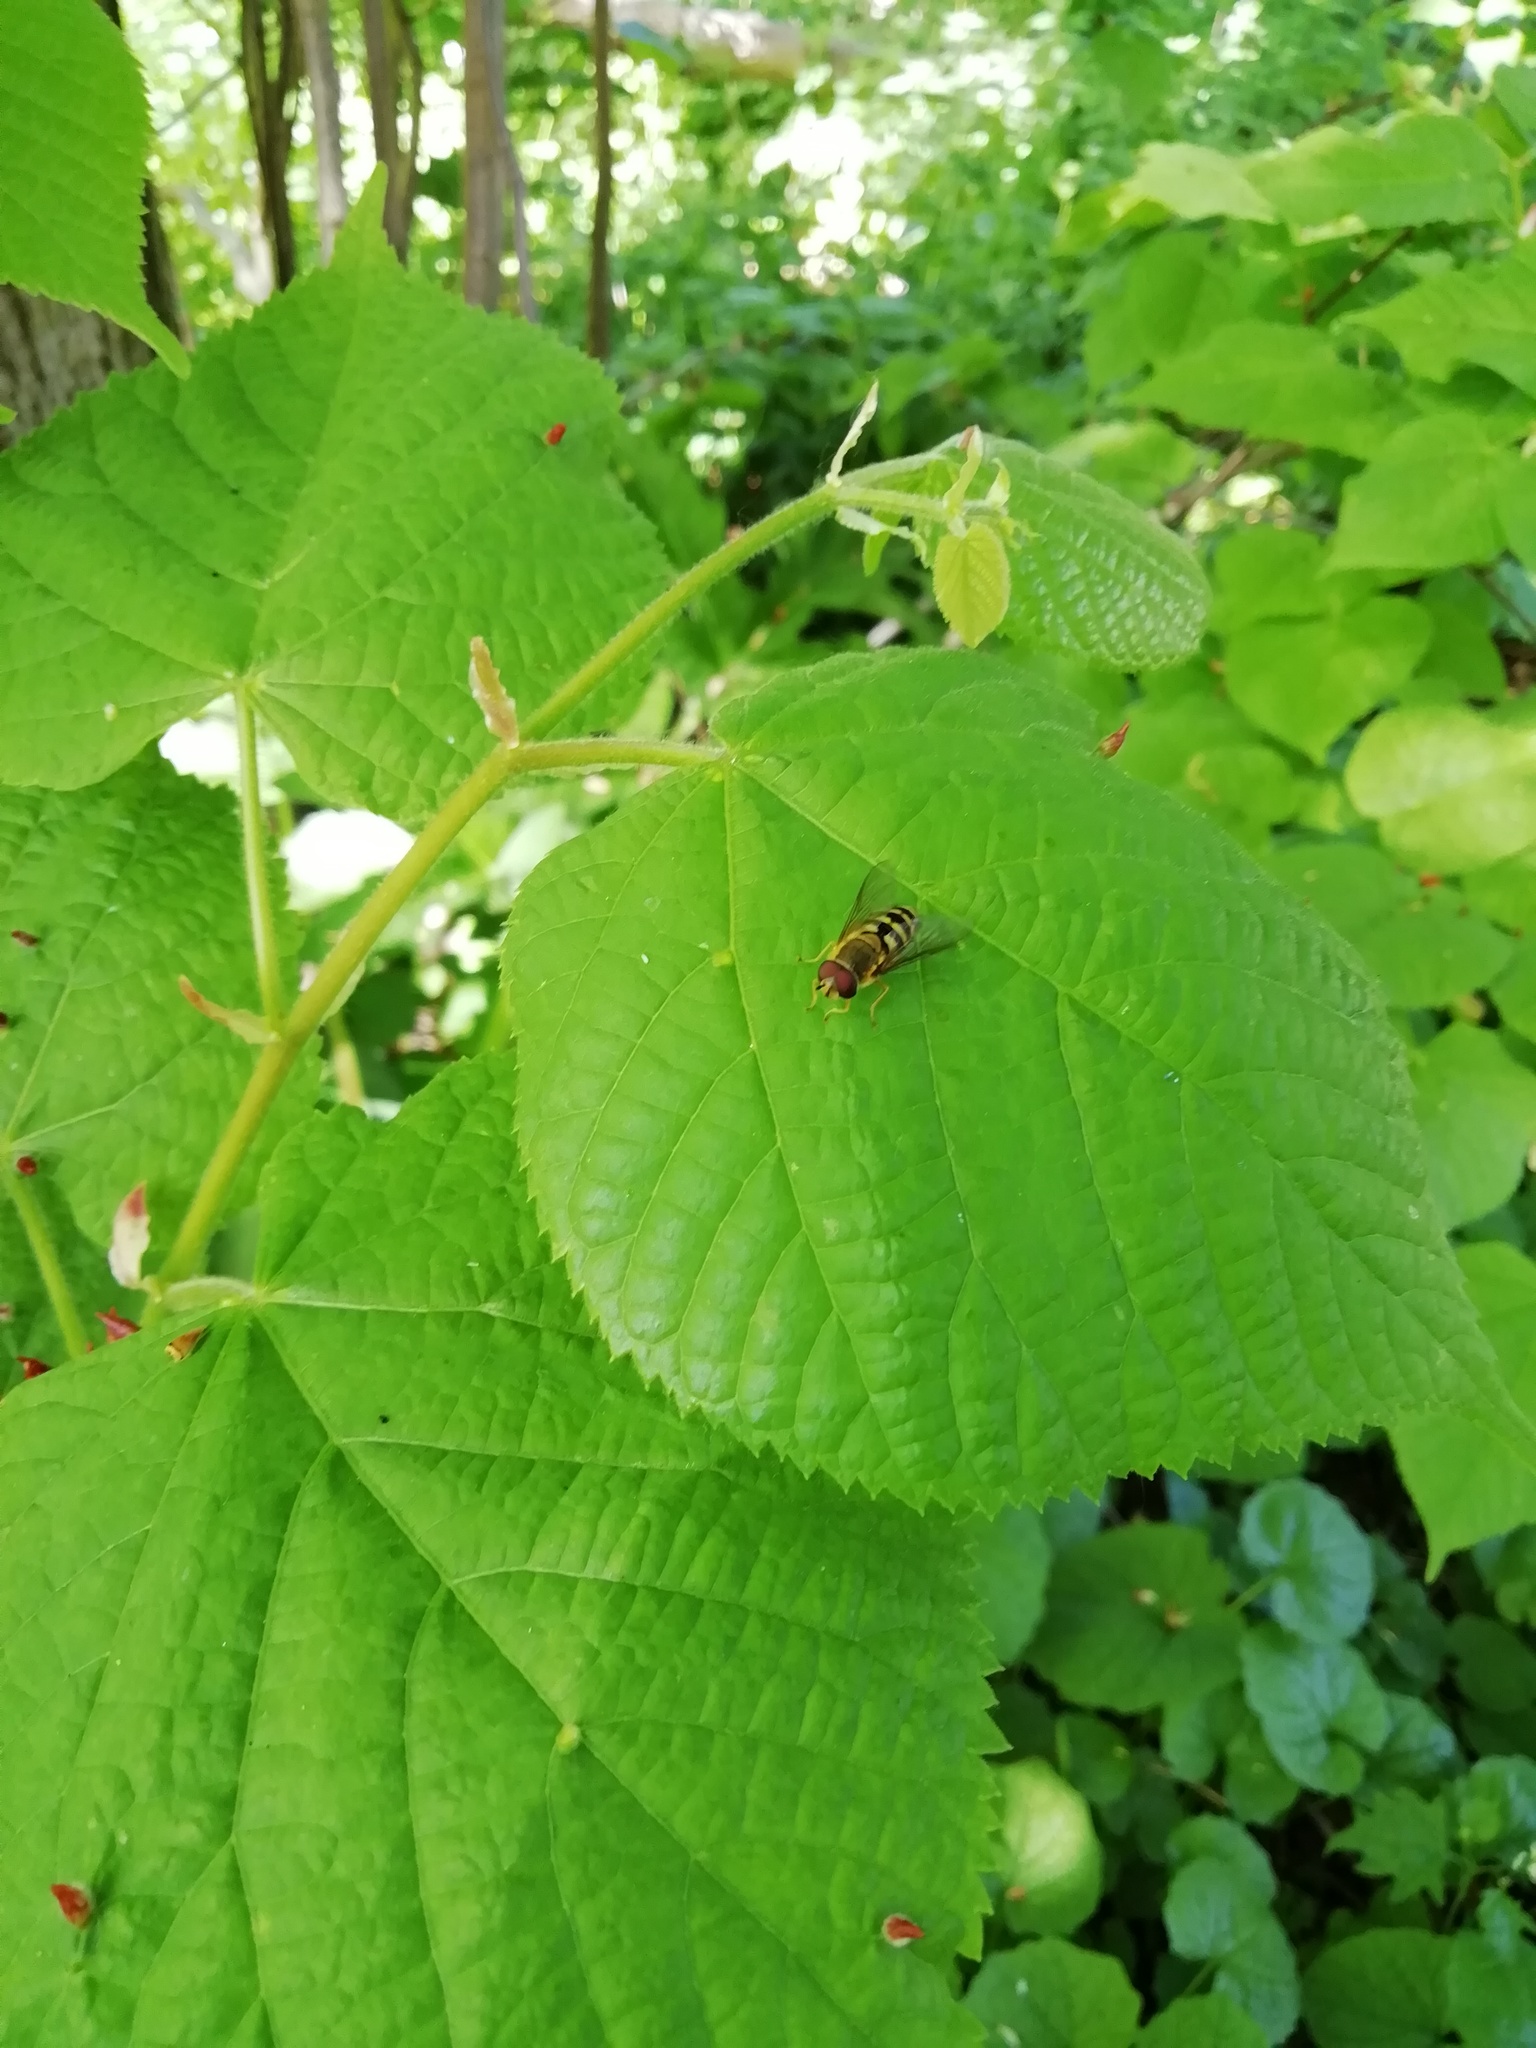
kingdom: Animalia
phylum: Arthropoda
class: Insecta
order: Diptera
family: Syrphidae
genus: Syrphus
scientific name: Syrphus
